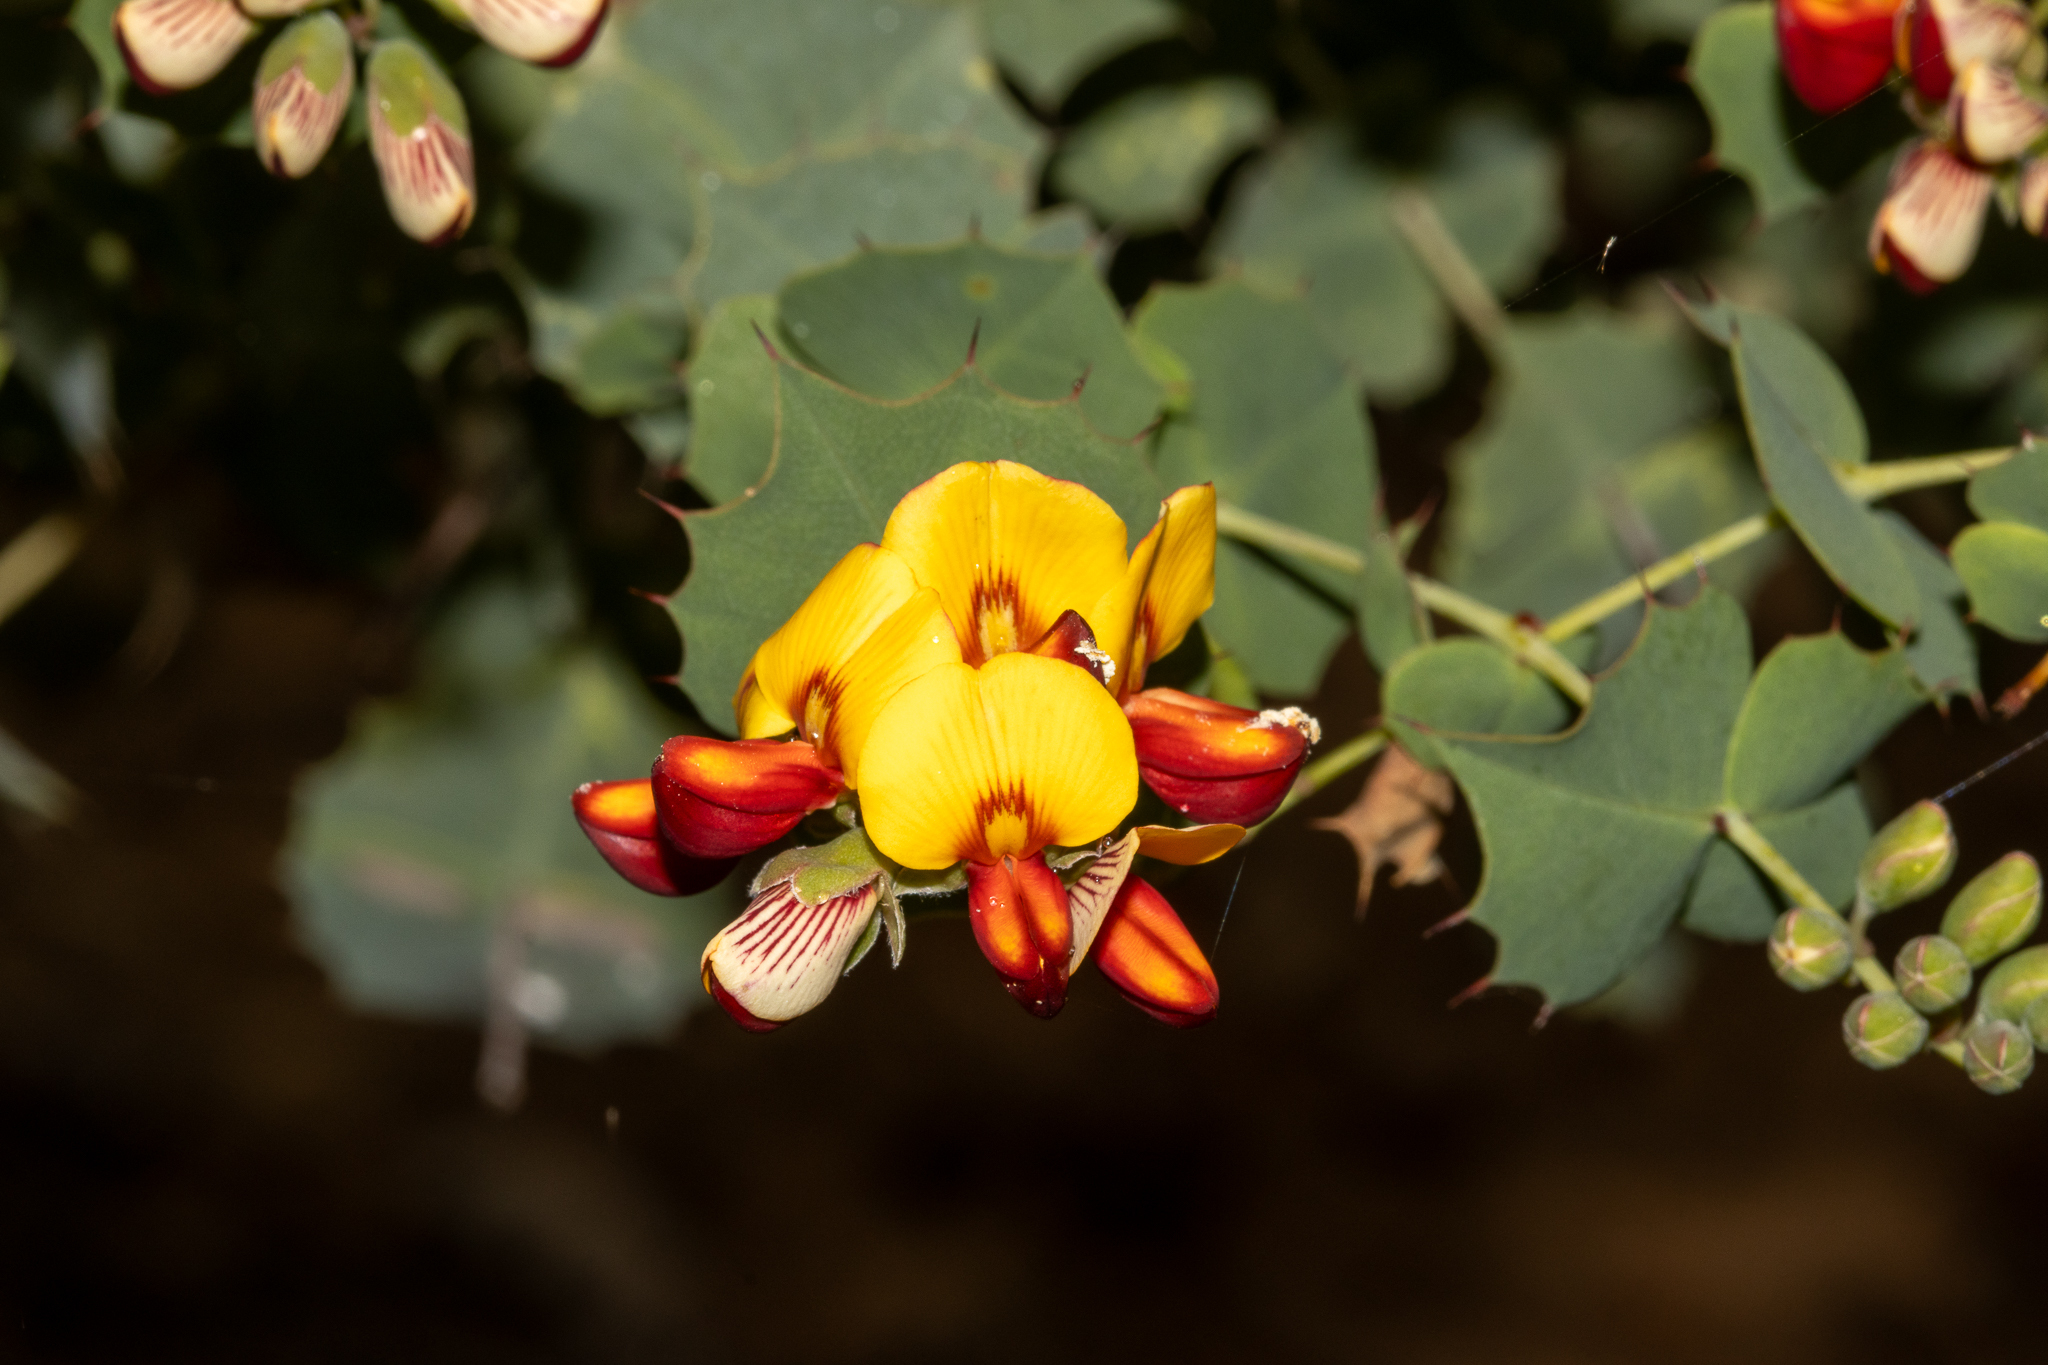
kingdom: Plantae
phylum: Tracheophyta
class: Magnoliopsida
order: Fabales
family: Fabaceae
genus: Gastrolobium
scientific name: Gastrolobium spinosum
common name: Prickly poison
